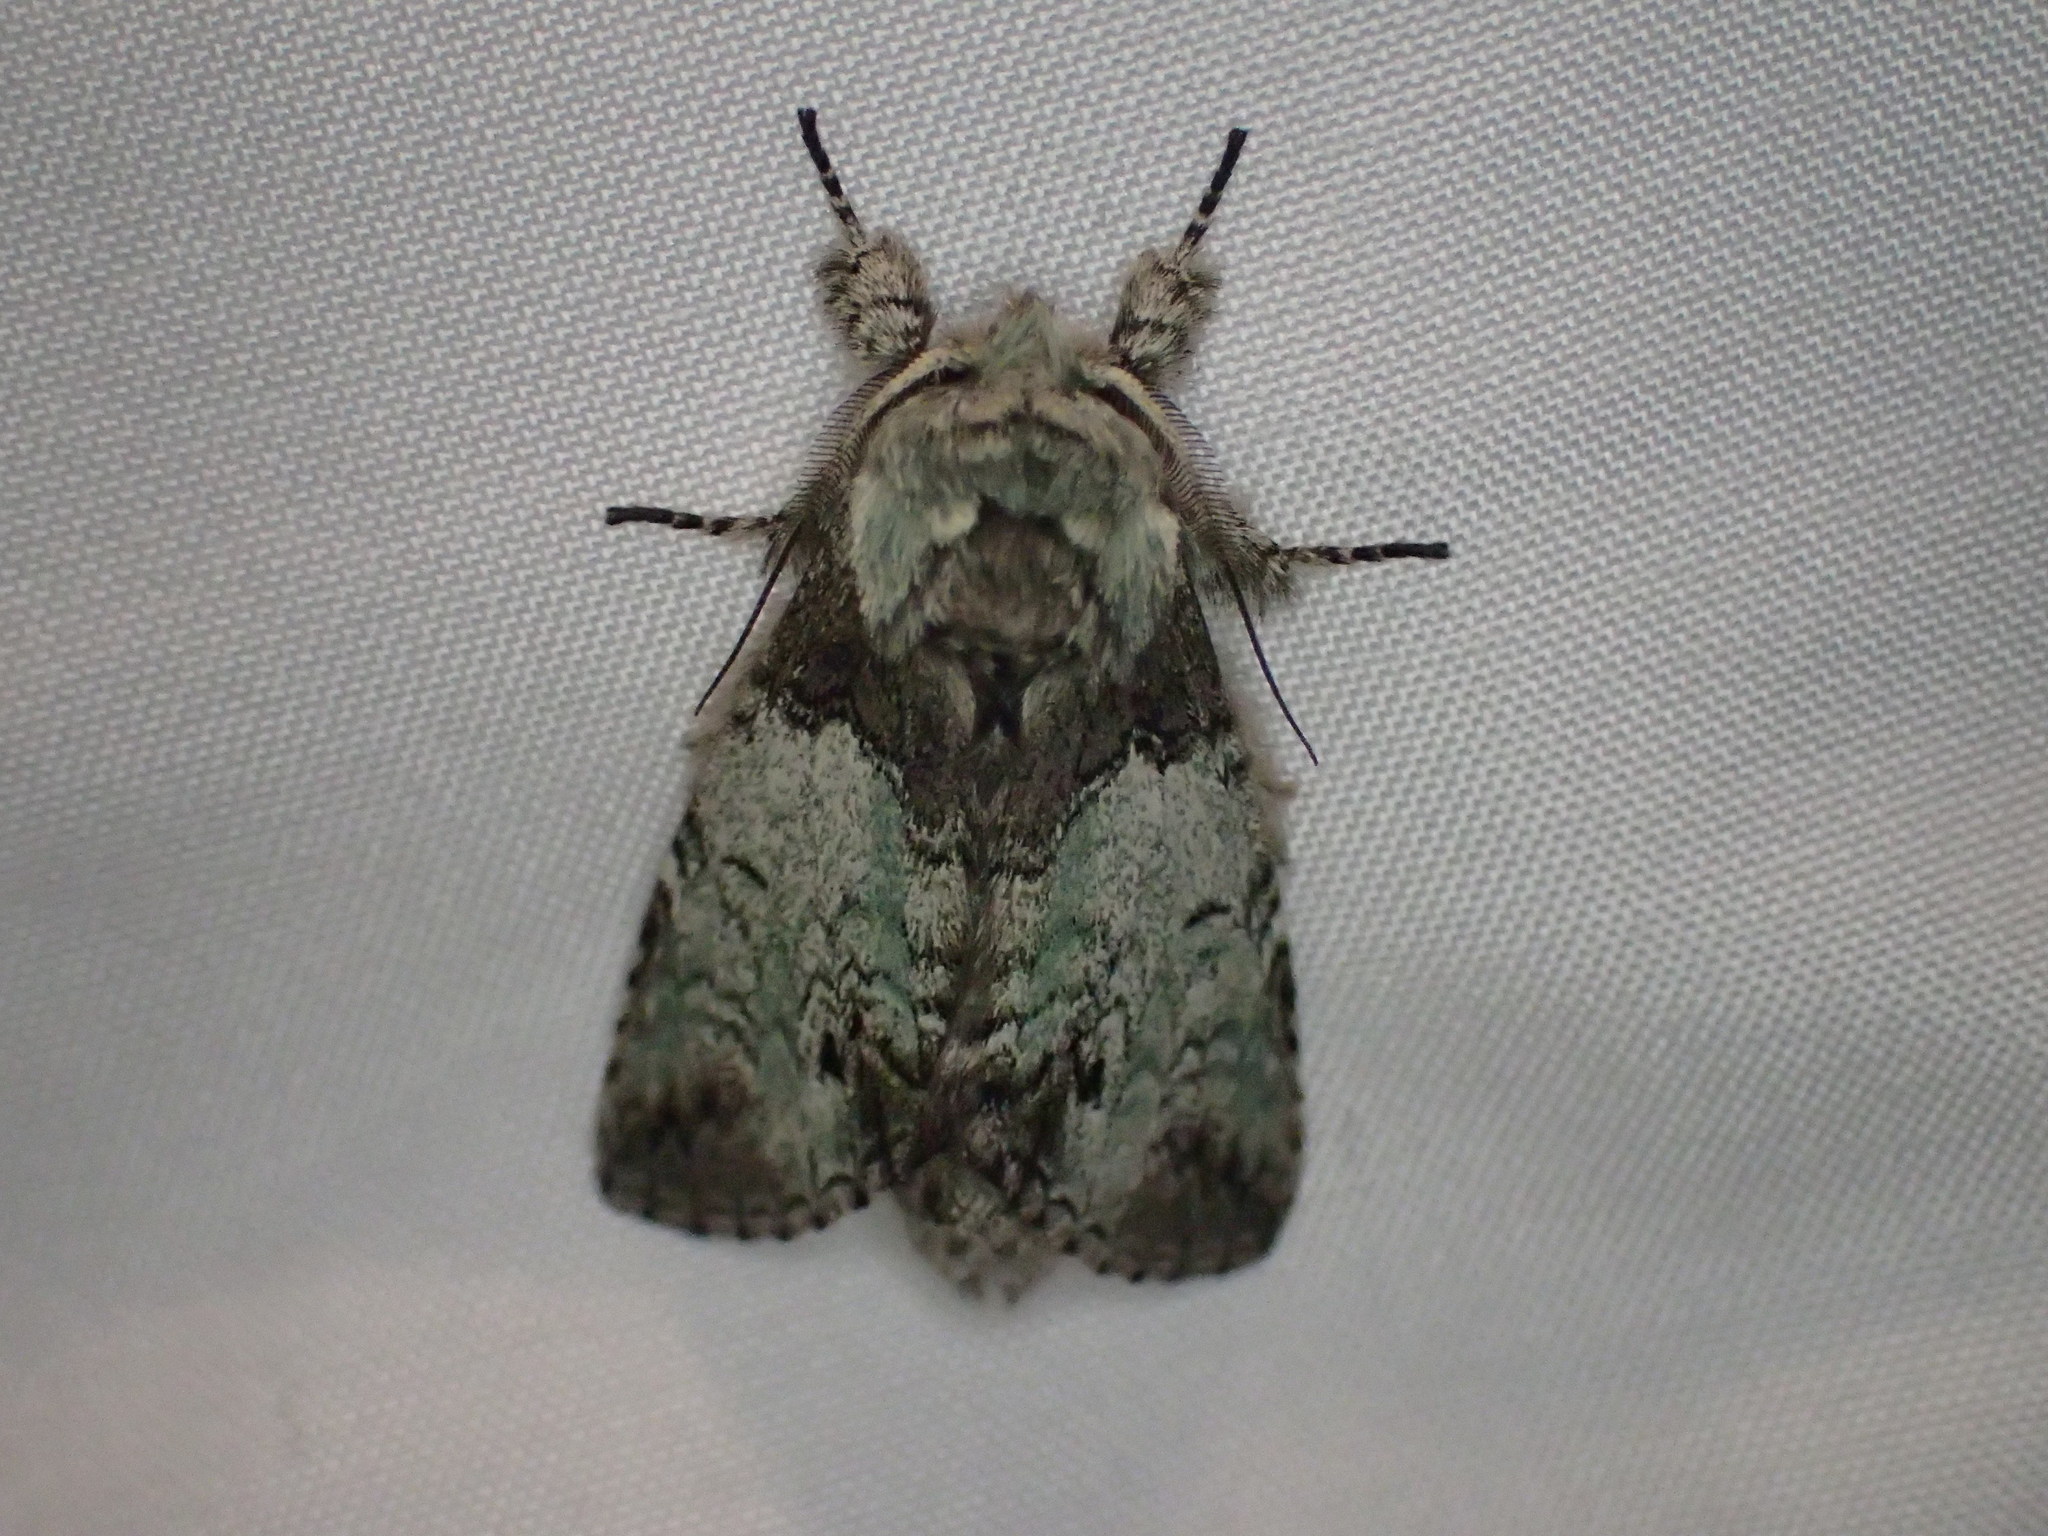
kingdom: Animalia
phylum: Arthropoda
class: Insecta
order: Lepidoptera
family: Notodontidae
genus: Macrurocampa
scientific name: Macrurocampa marthesia
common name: Mottled prominent
